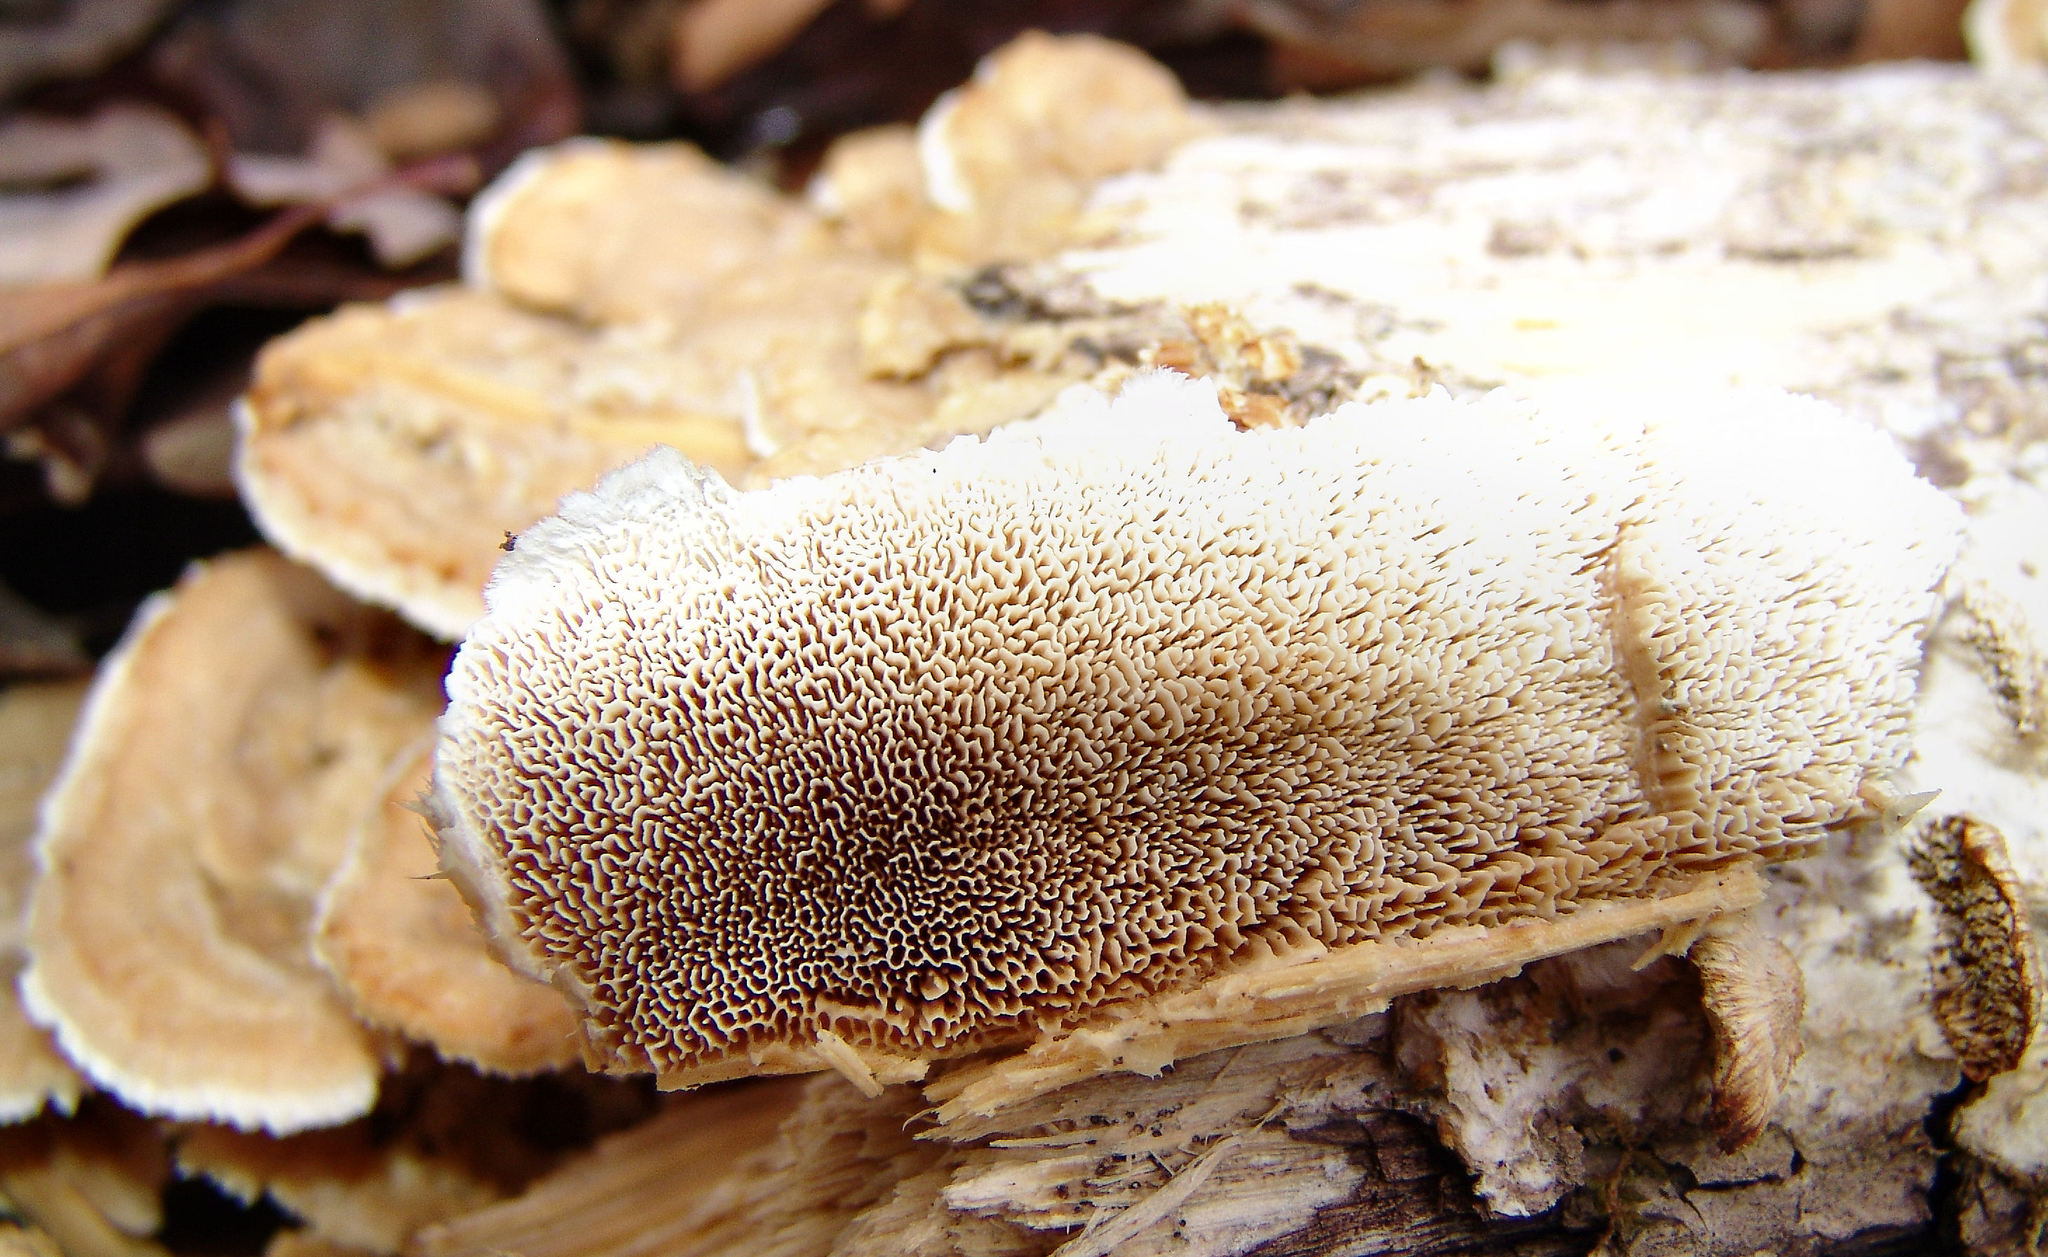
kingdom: Fungi
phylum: Basidiomycota
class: Agaricomycetes
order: Polyporales
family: Irpicaceae
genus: Trametopsis
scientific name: Trametopsis cervina
